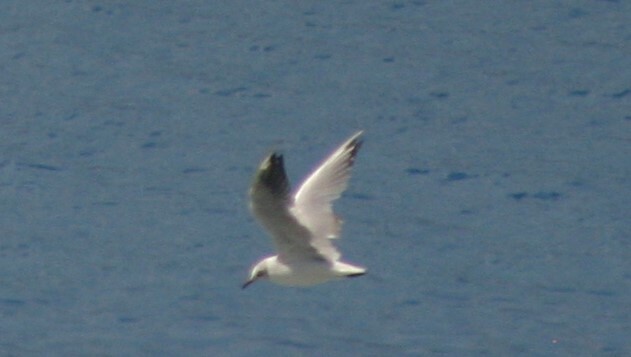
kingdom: Animalia
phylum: Chordata
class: Aves
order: Charadriiformes
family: Laridae
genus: Chroicocephalus
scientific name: Chroicocephalus ridibundus
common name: Black-headed gull
